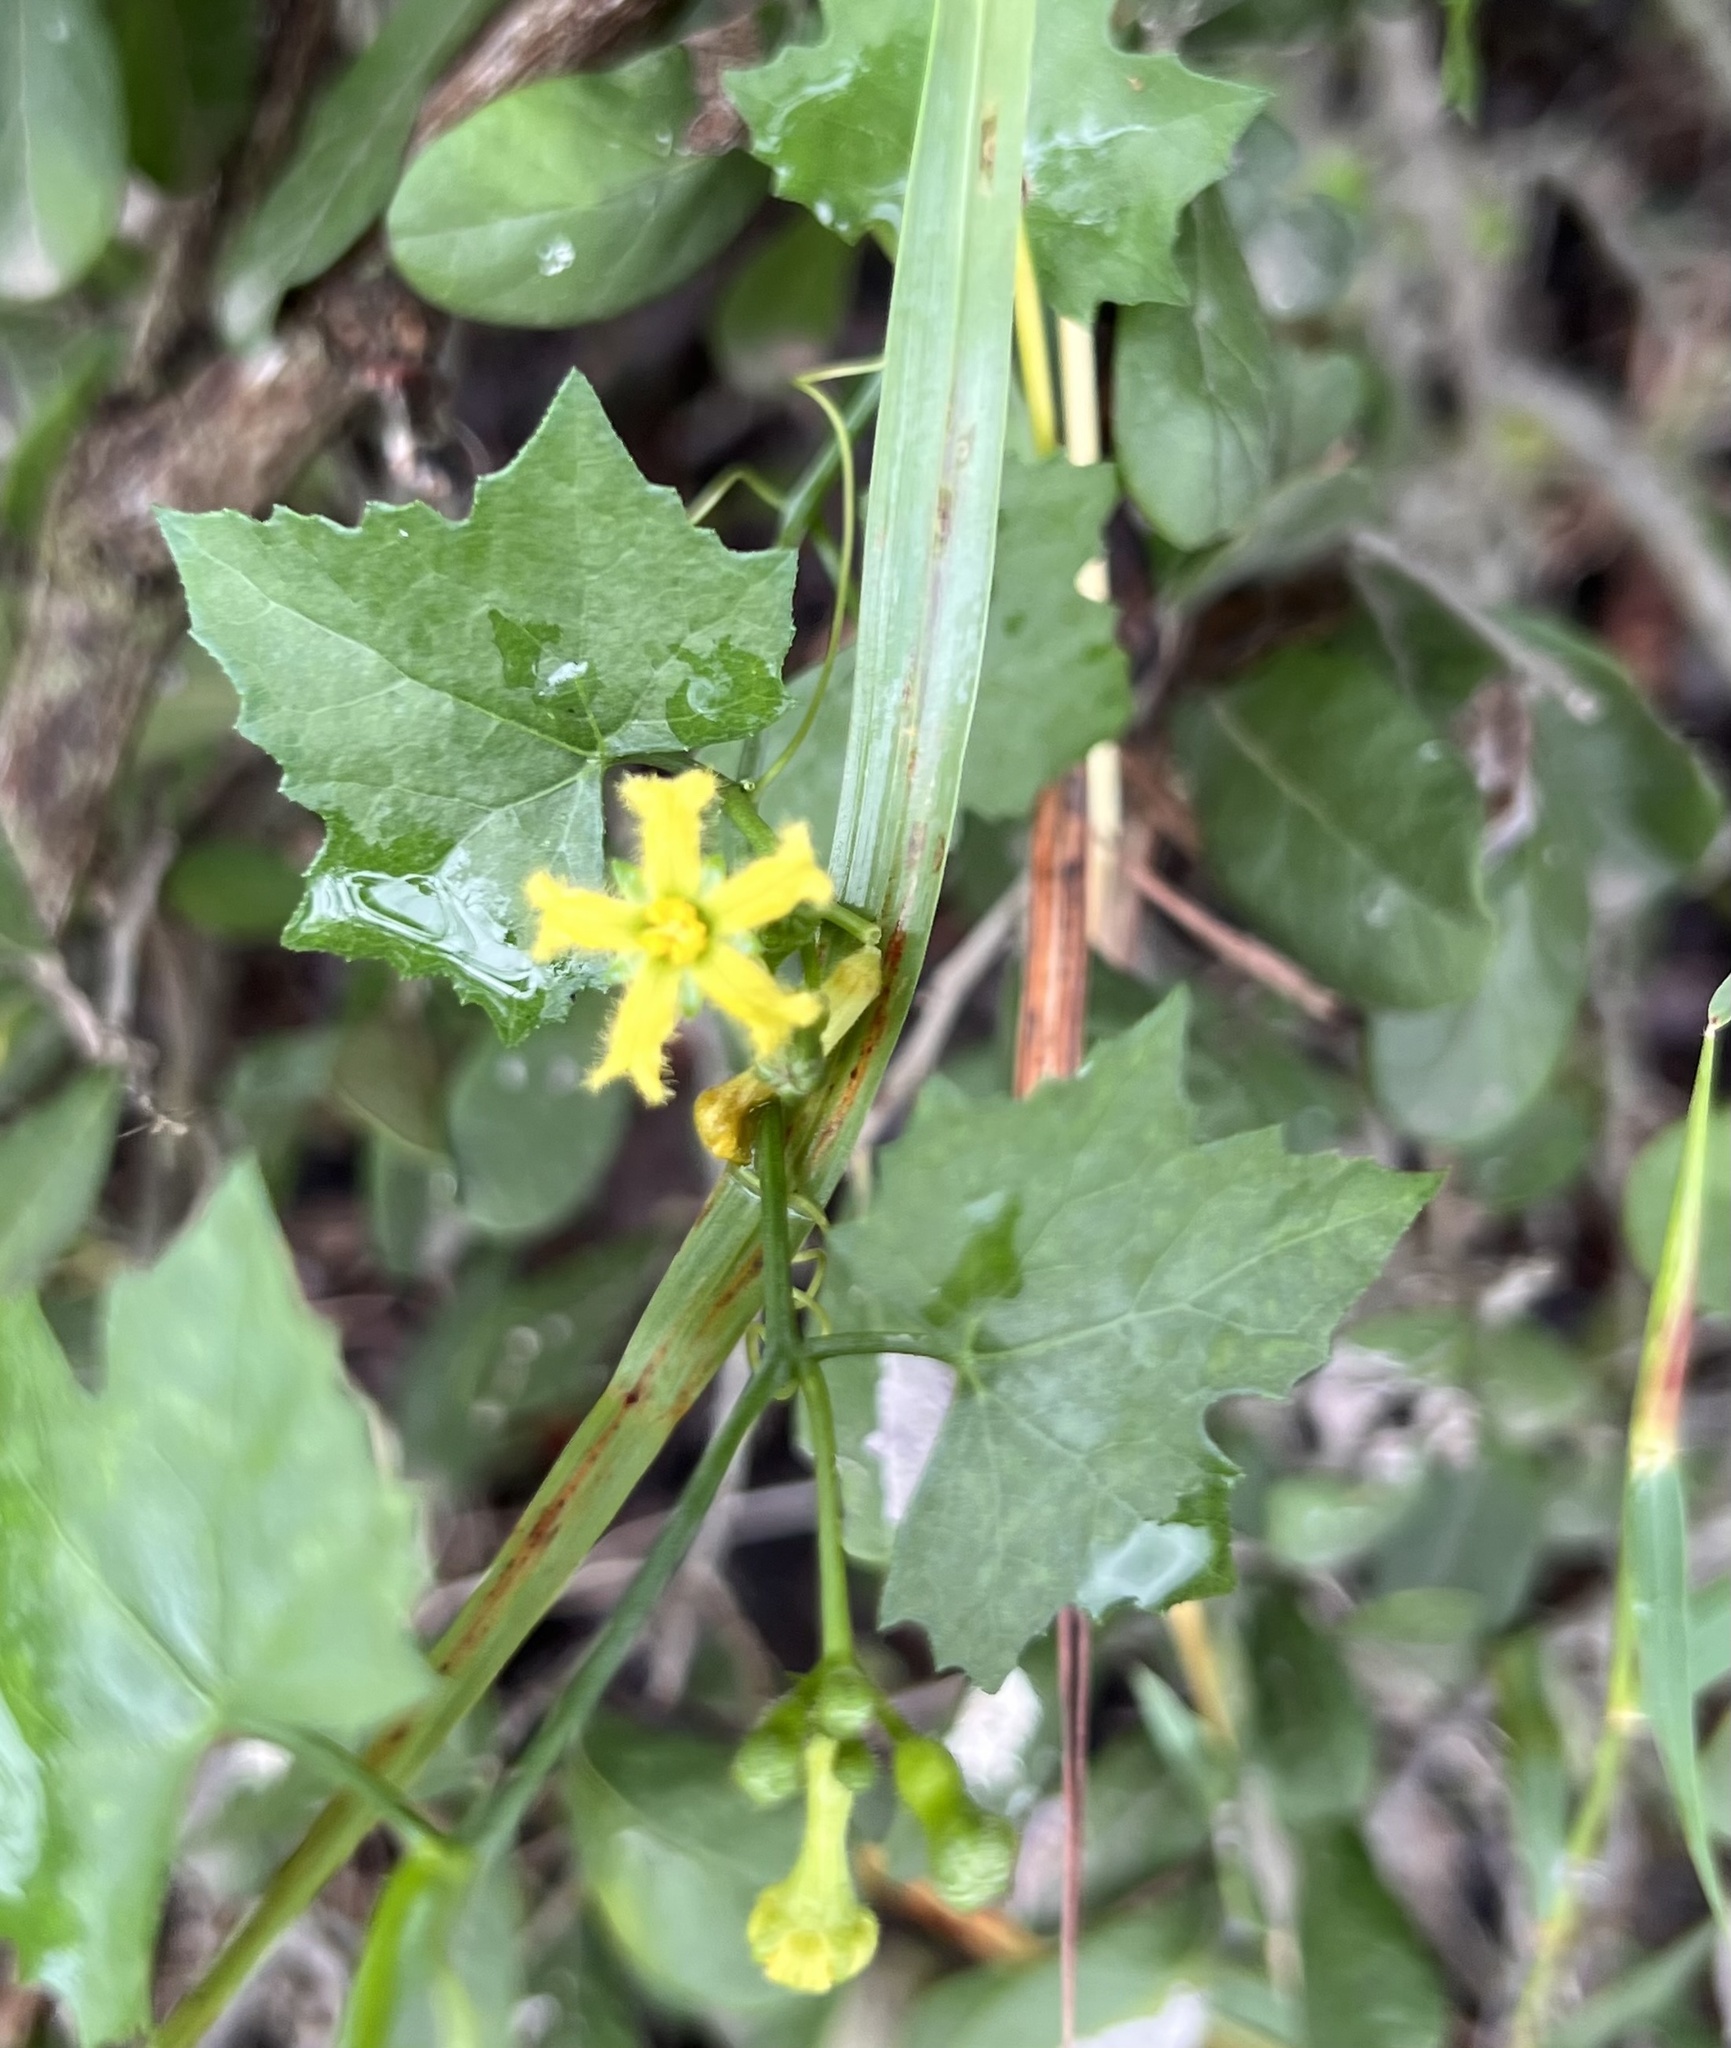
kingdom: Plantae
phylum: Tracheophyta
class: Magnoliopsida
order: Cucurbitales
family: Cucurbitaceae
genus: Ibervillea
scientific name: Ibervillea lindheimeri
